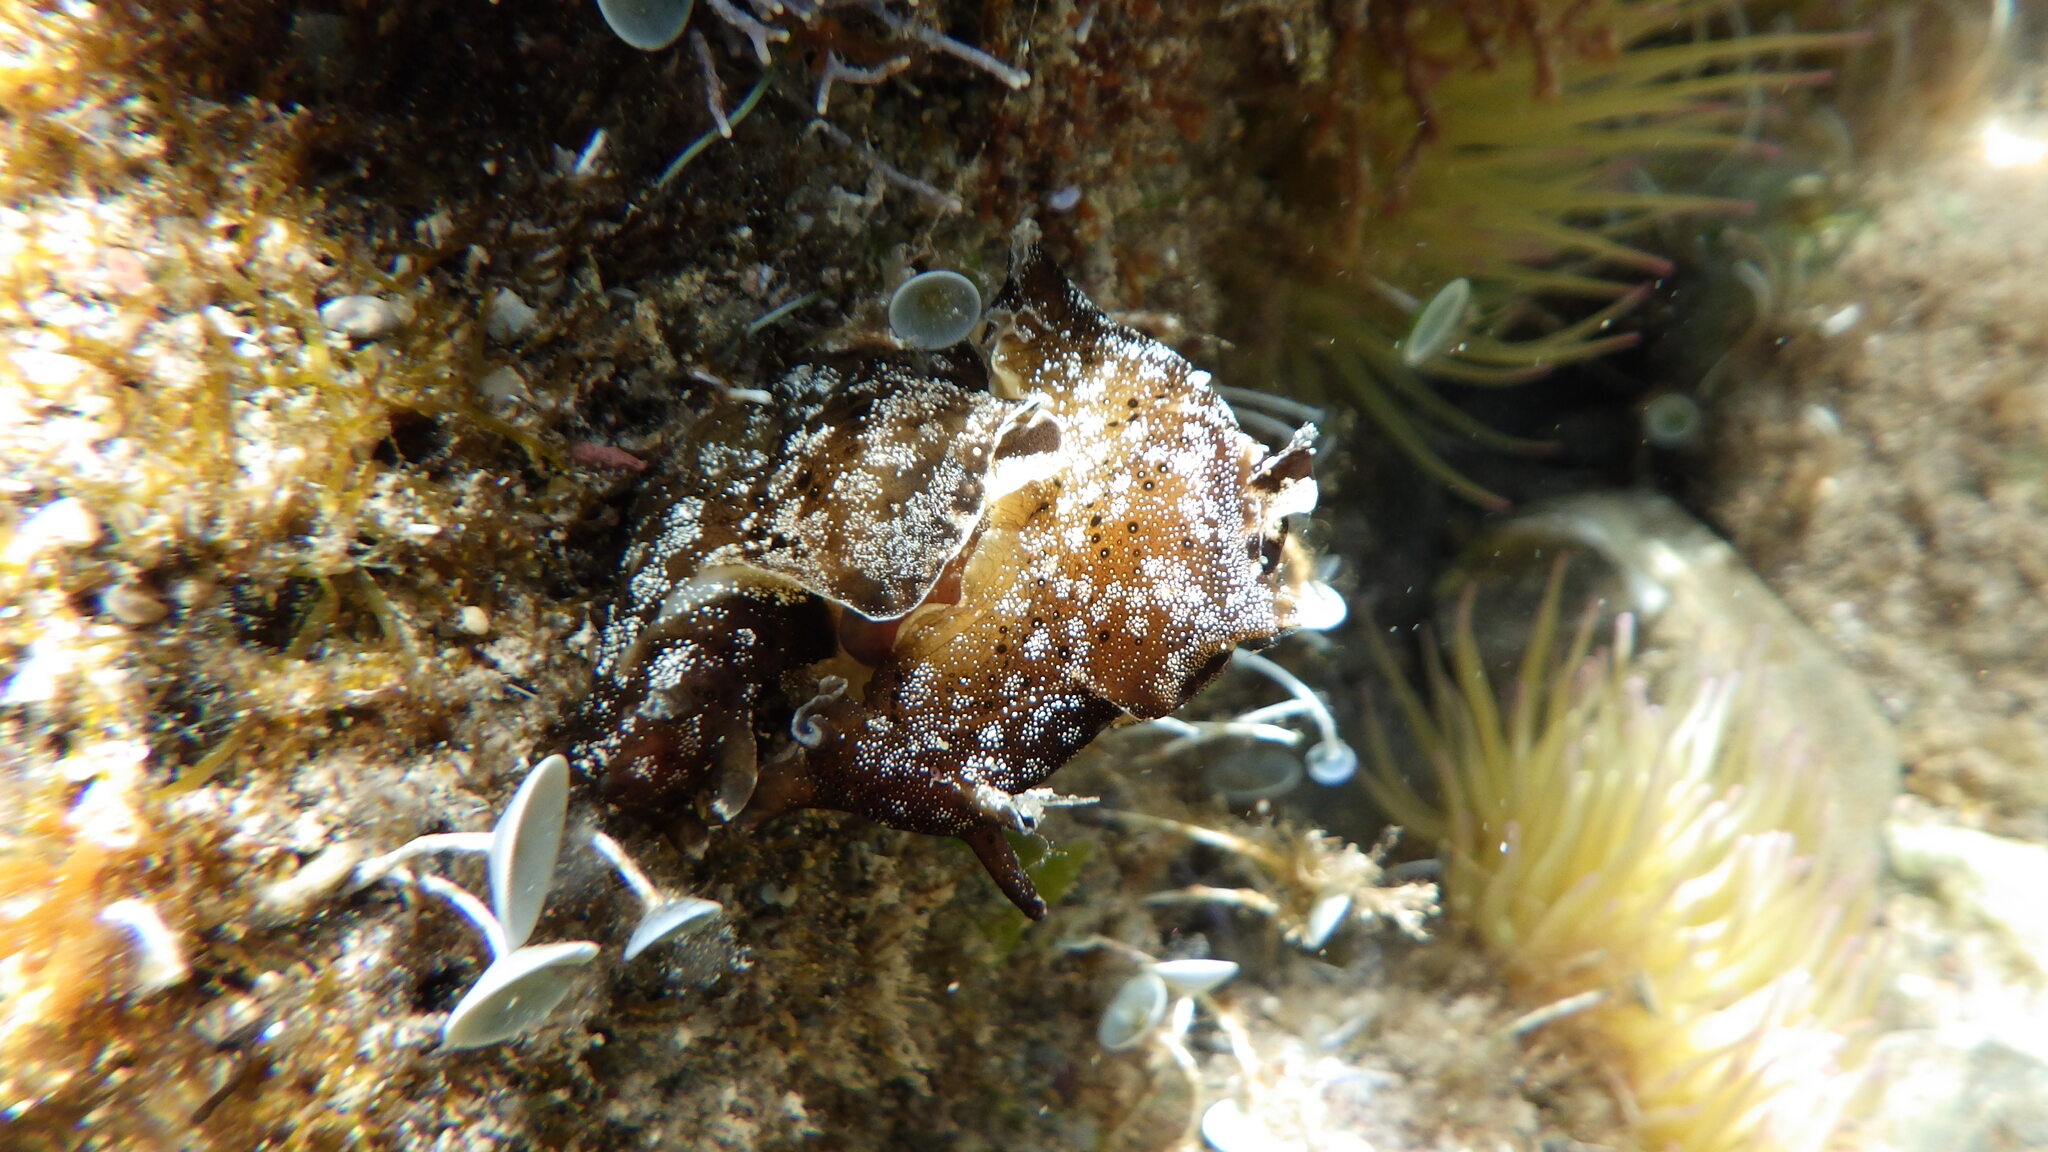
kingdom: Animalia
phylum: Mollusca
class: Gastropoda
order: Aplysiida
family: Aplysiidae
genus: Aplysia
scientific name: Aplysia punctata
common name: Common sea hare
